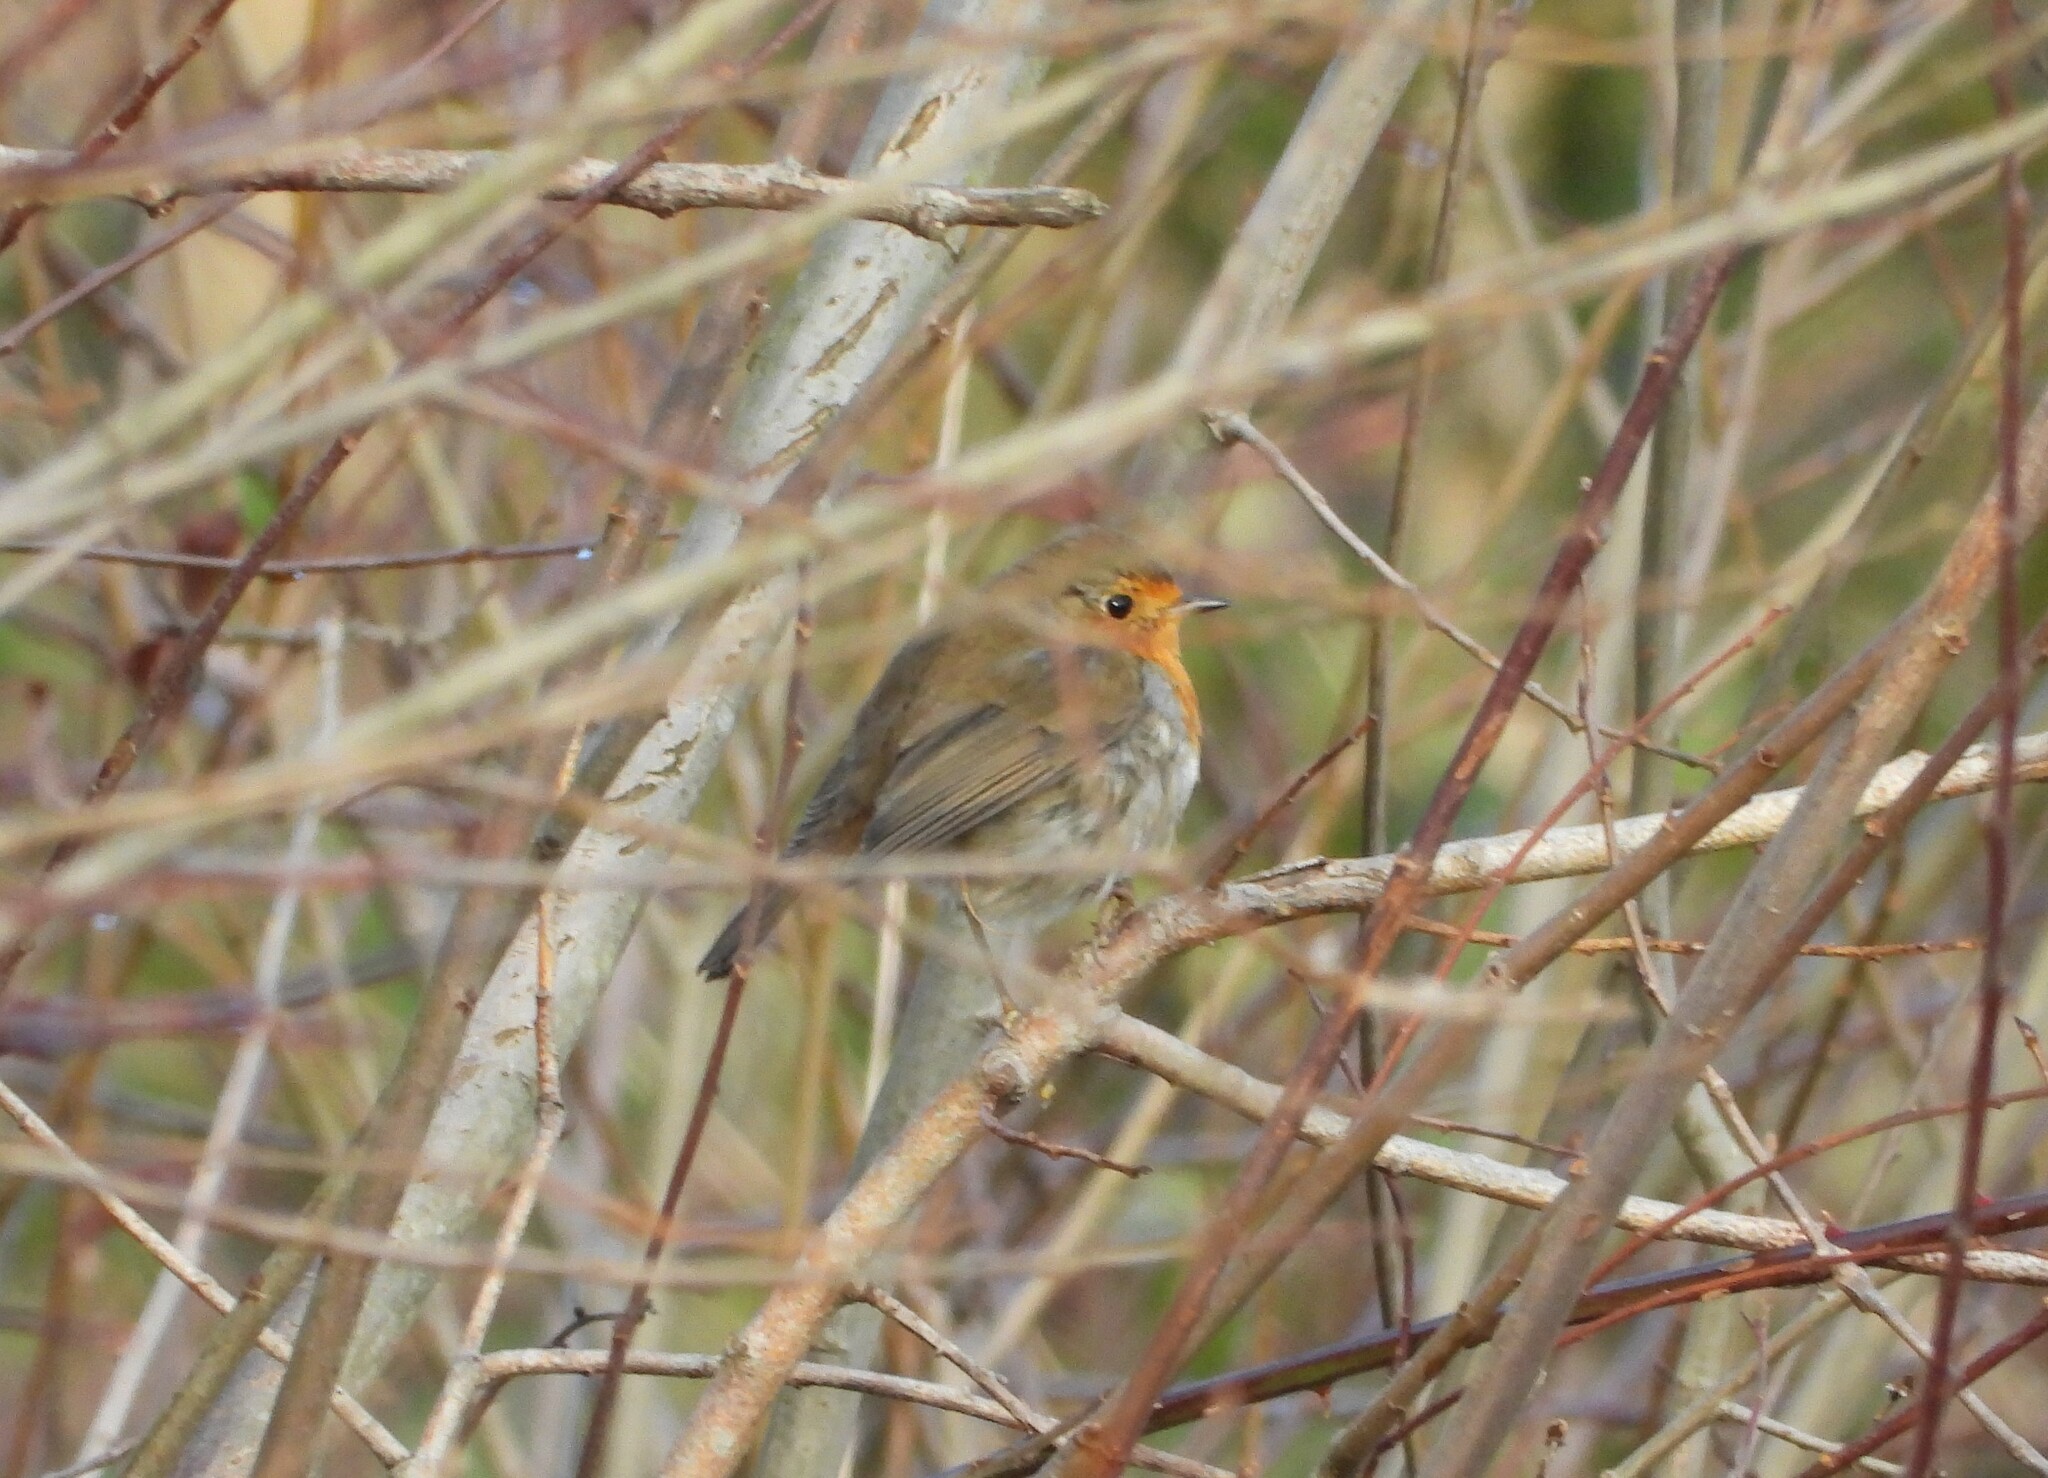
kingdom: Animalia
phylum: Chordata
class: Aves
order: Passeriformes
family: Muscicapidae
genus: Erithacus
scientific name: Erithacus rubecula
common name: European robin
